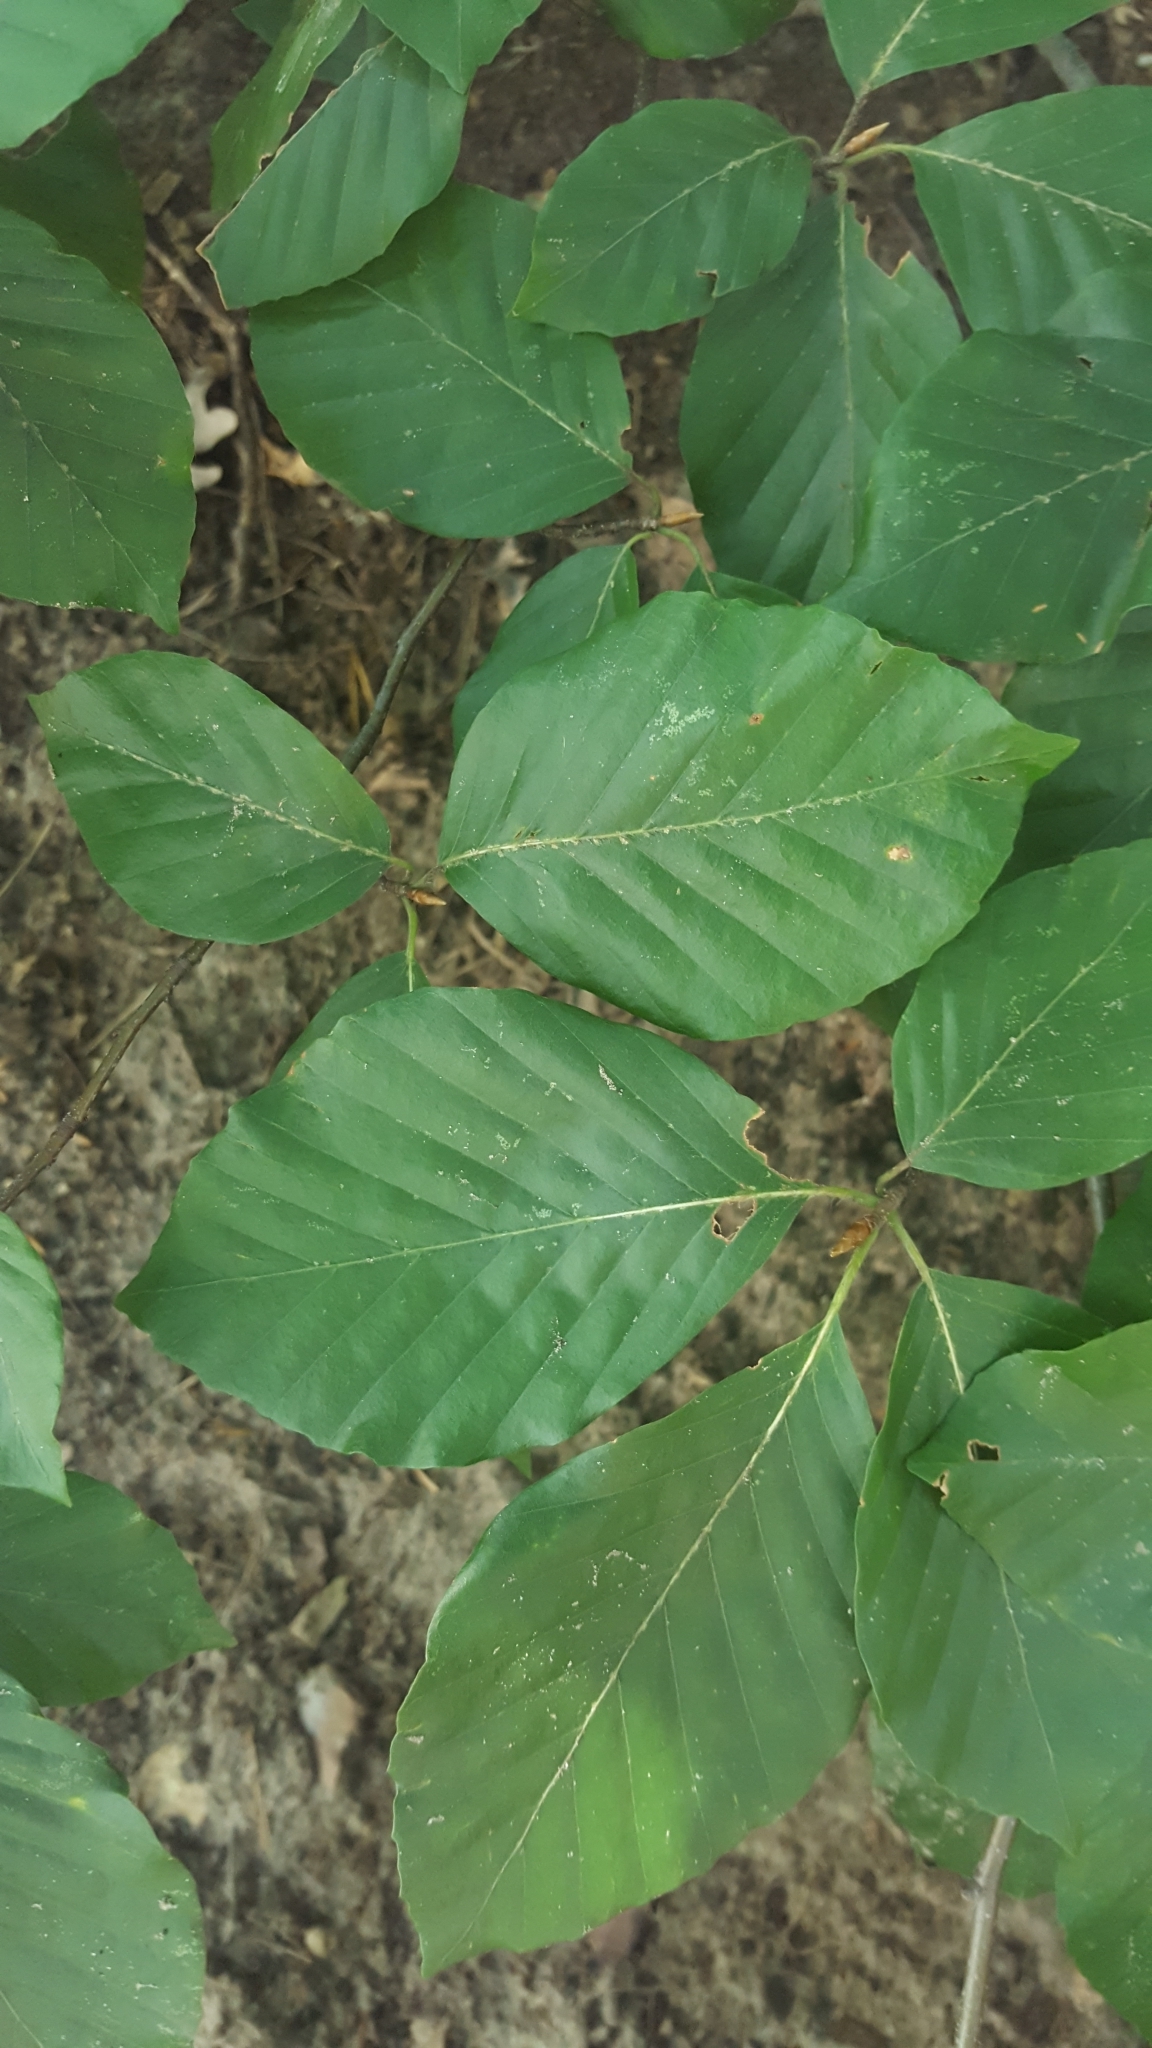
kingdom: Plantae
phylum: Tracheophyta
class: Magnoliopsida
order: Fagales
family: Fagaceae
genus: Fagus
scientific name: Fagus sylvatica
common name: Beech
